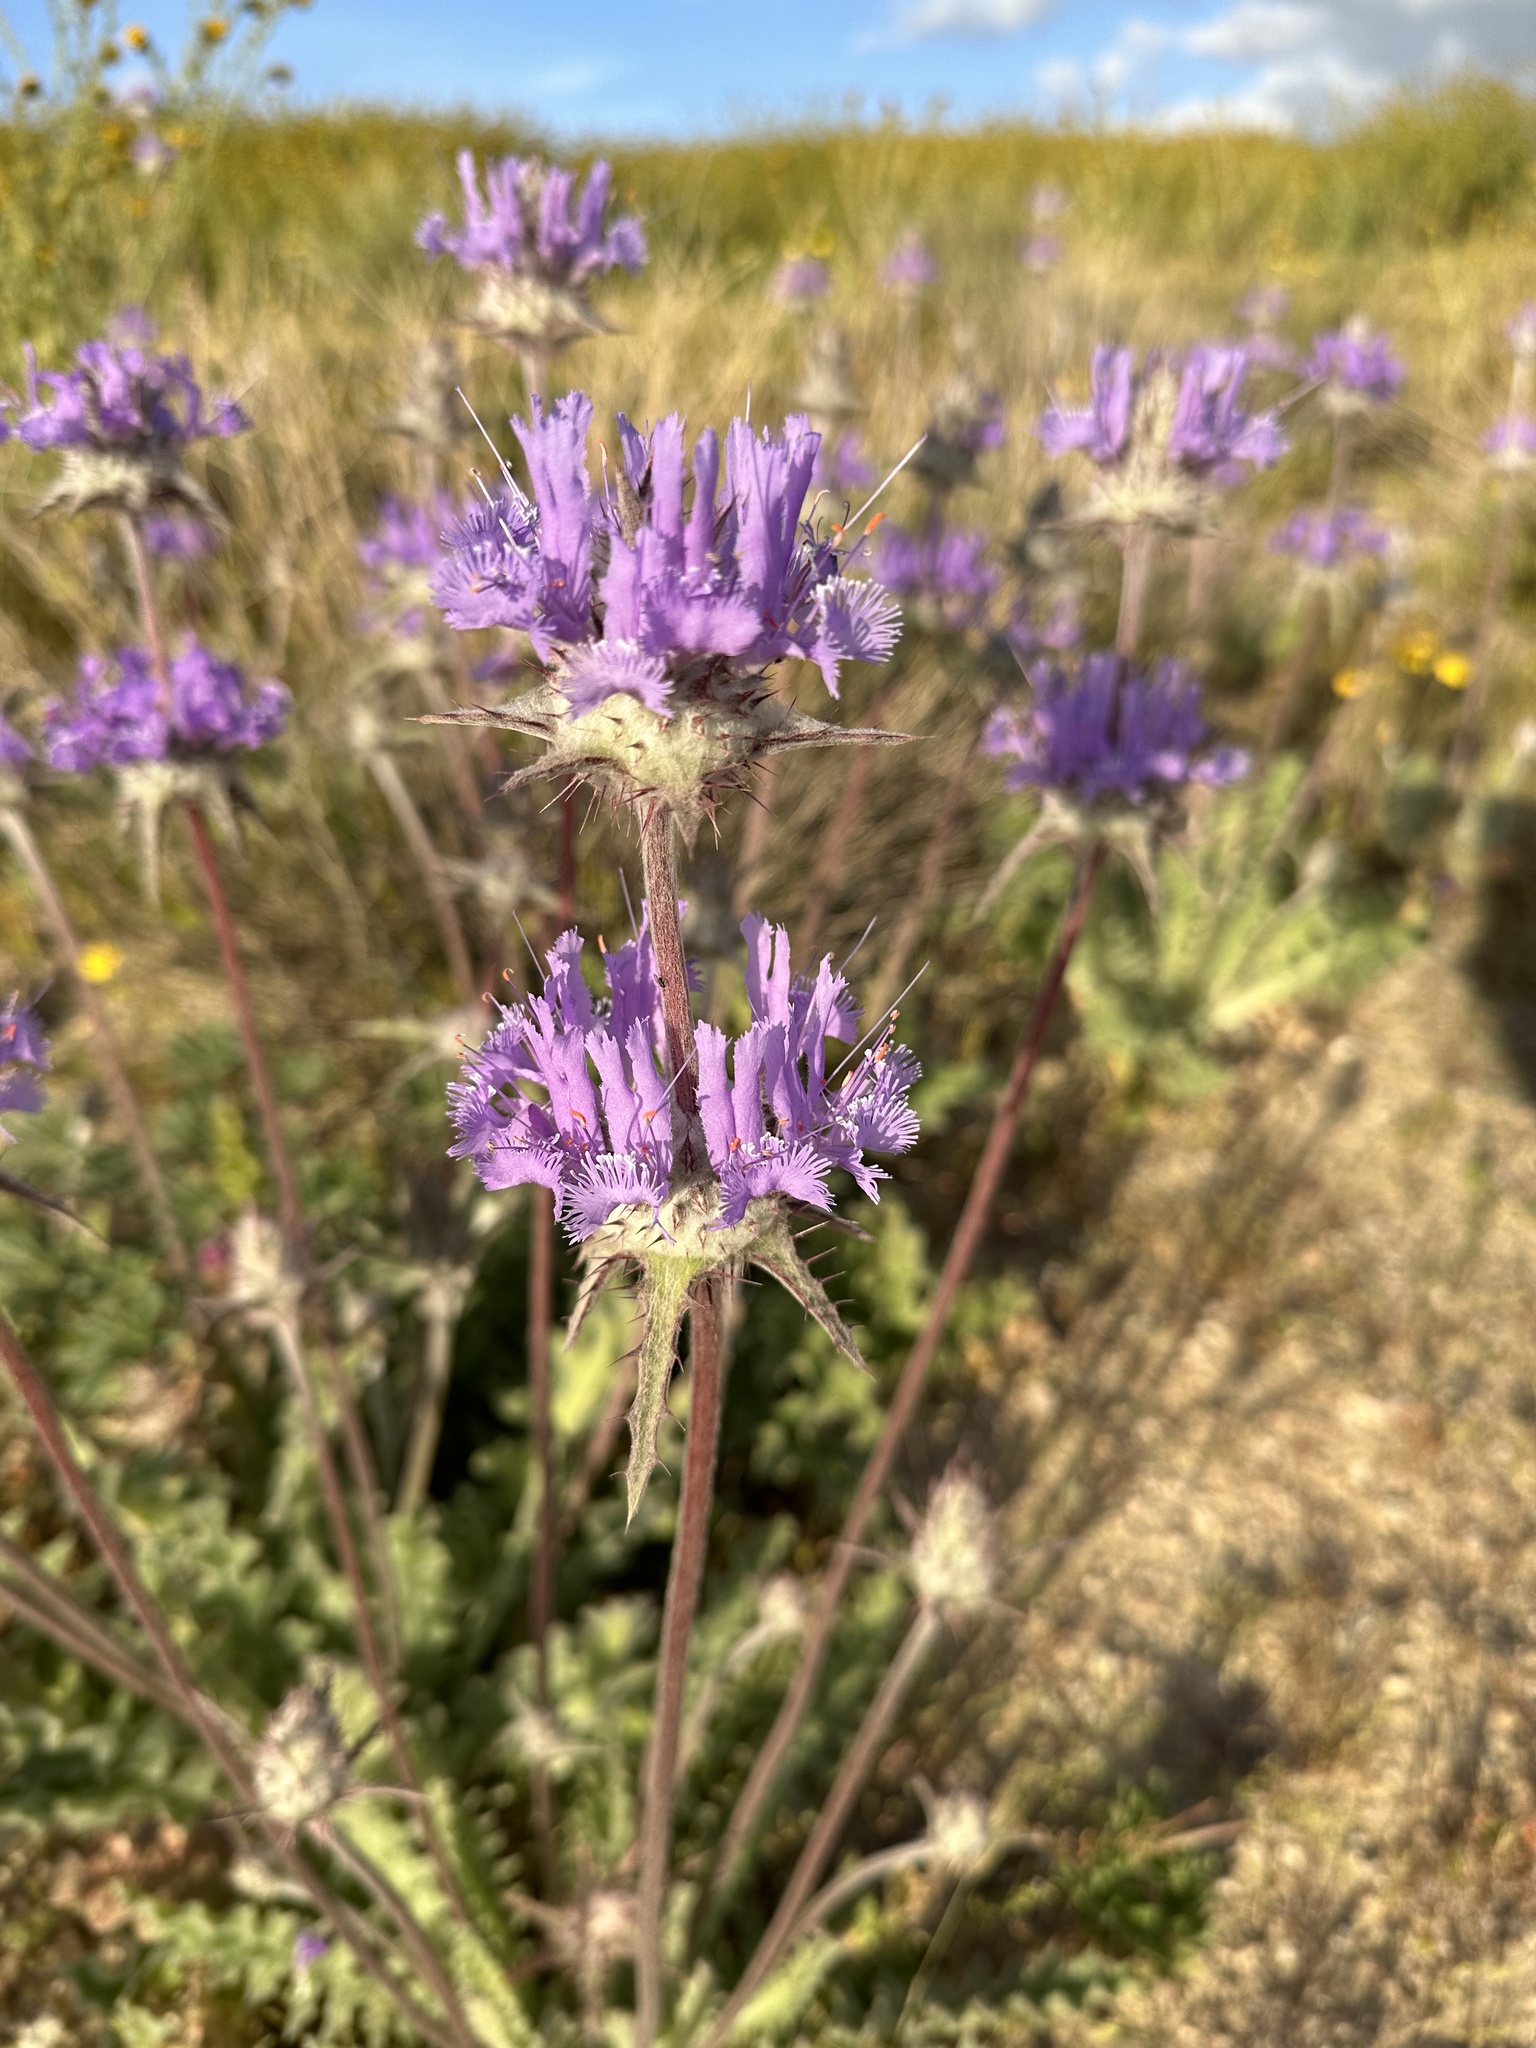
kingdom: Plantae
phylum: Tracheophyta
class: Magnoliopsida
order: Lamiales
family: Lamiaceae
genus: Salvia
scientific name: Salvia carduacea
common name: Thistle sage
